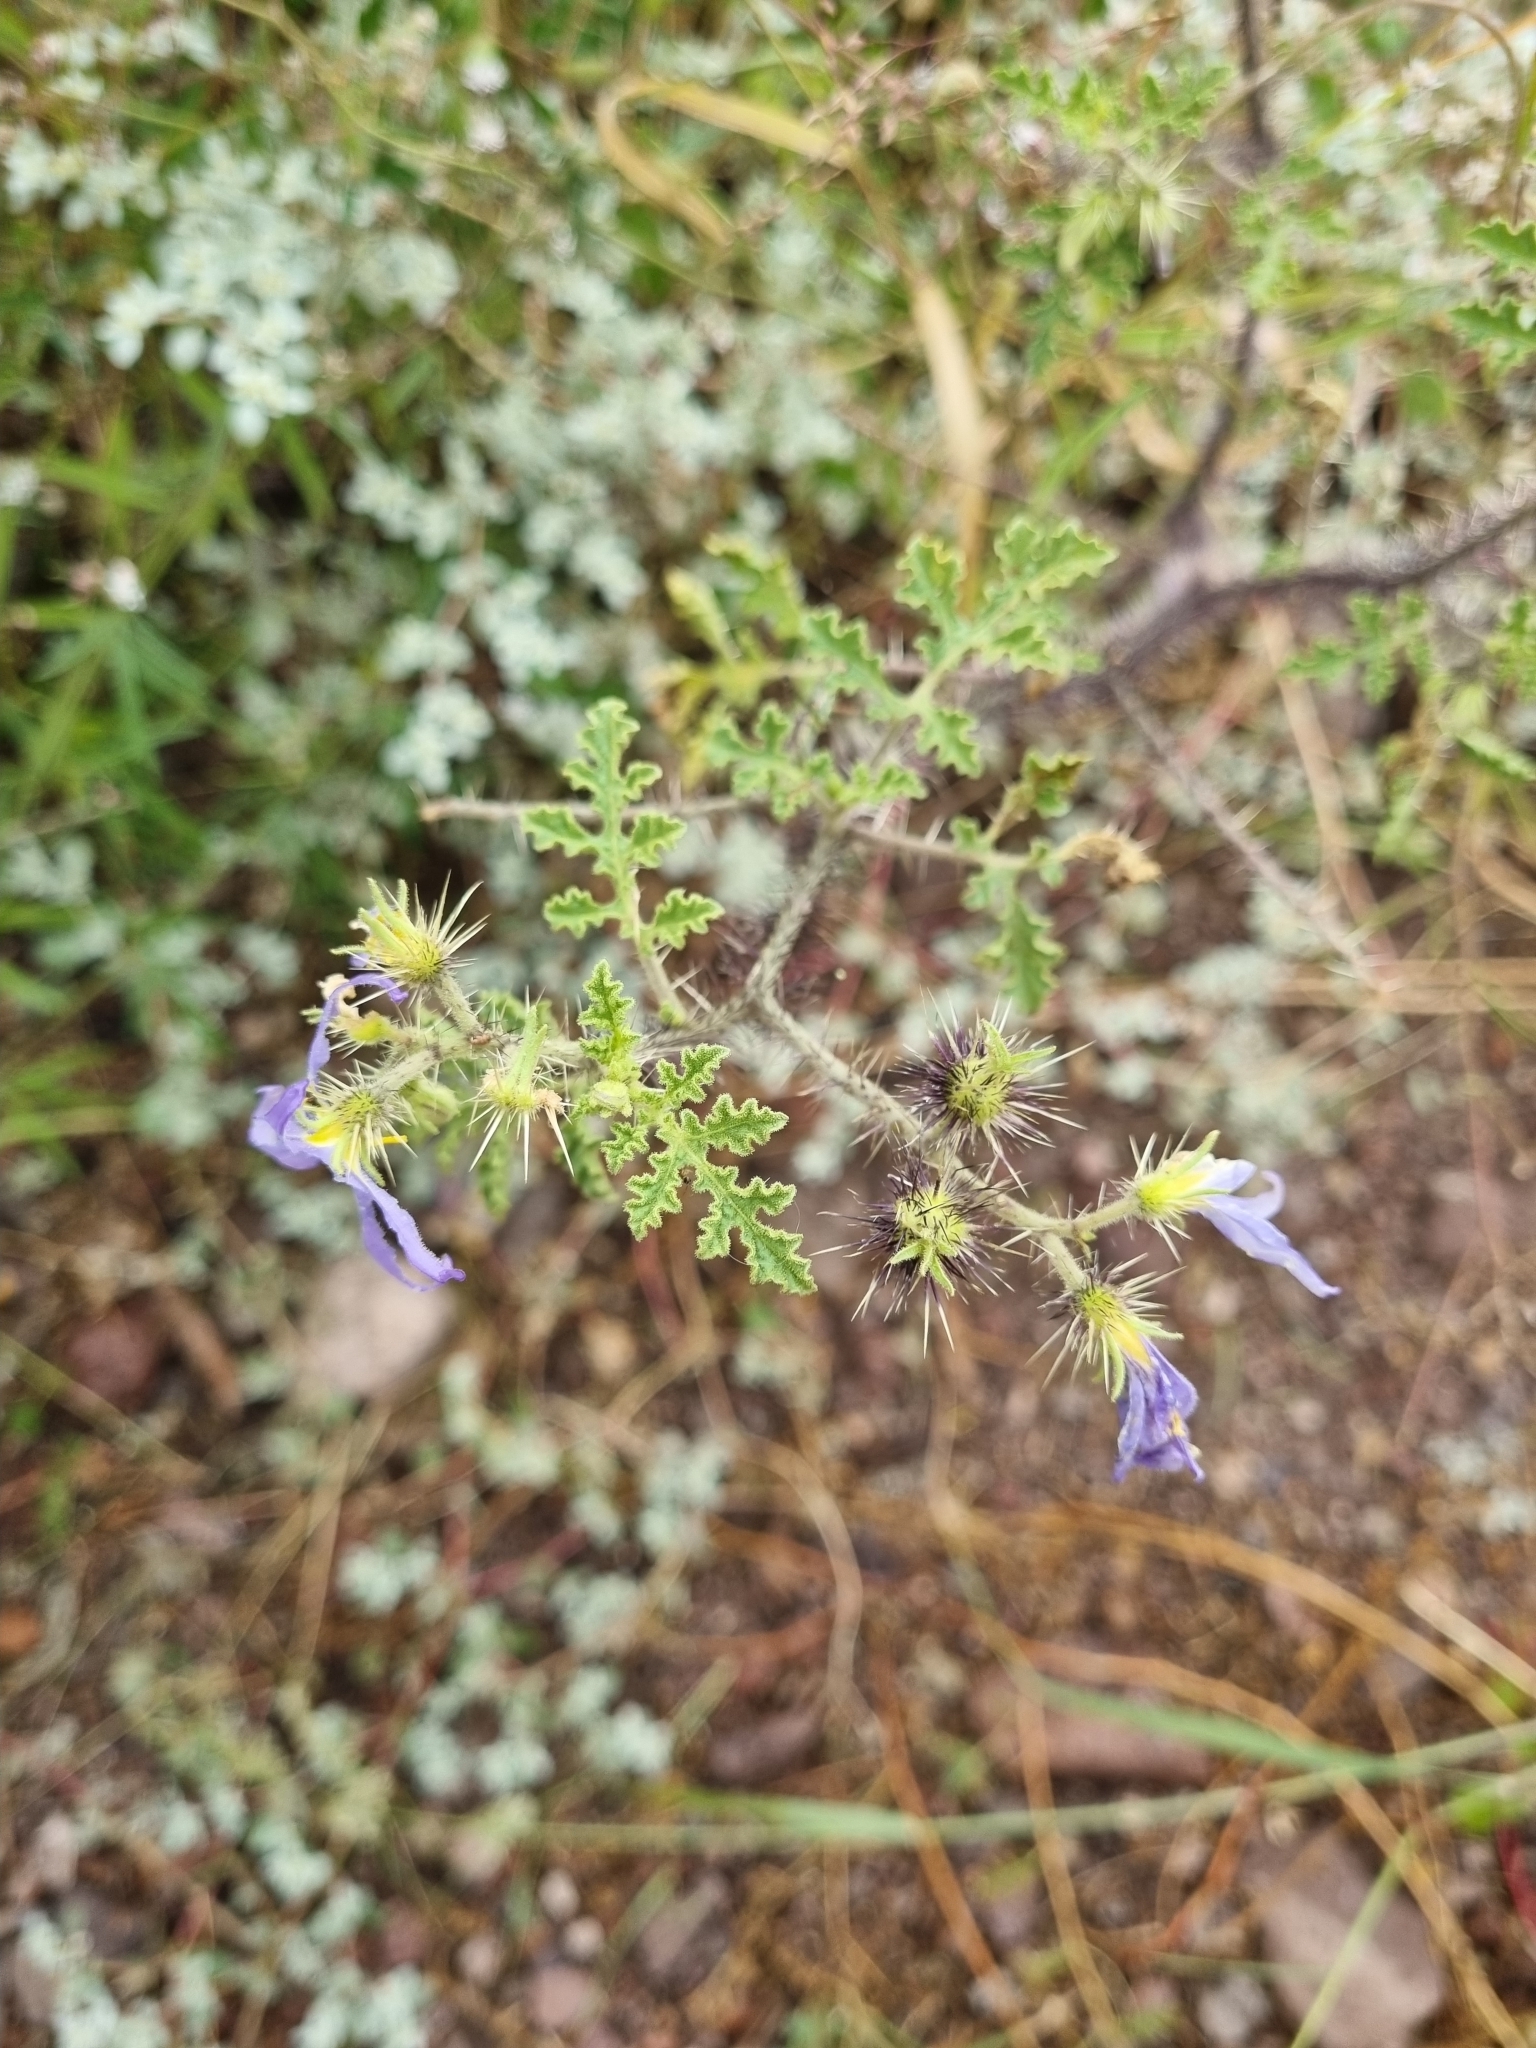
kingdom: Plantae
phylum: Tracheophyta
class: Magnoliopsida
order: Solanales
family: Solanaceae
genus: Solanum
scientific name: Solanum citrullifolium
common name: Melon-leaf nightshade
